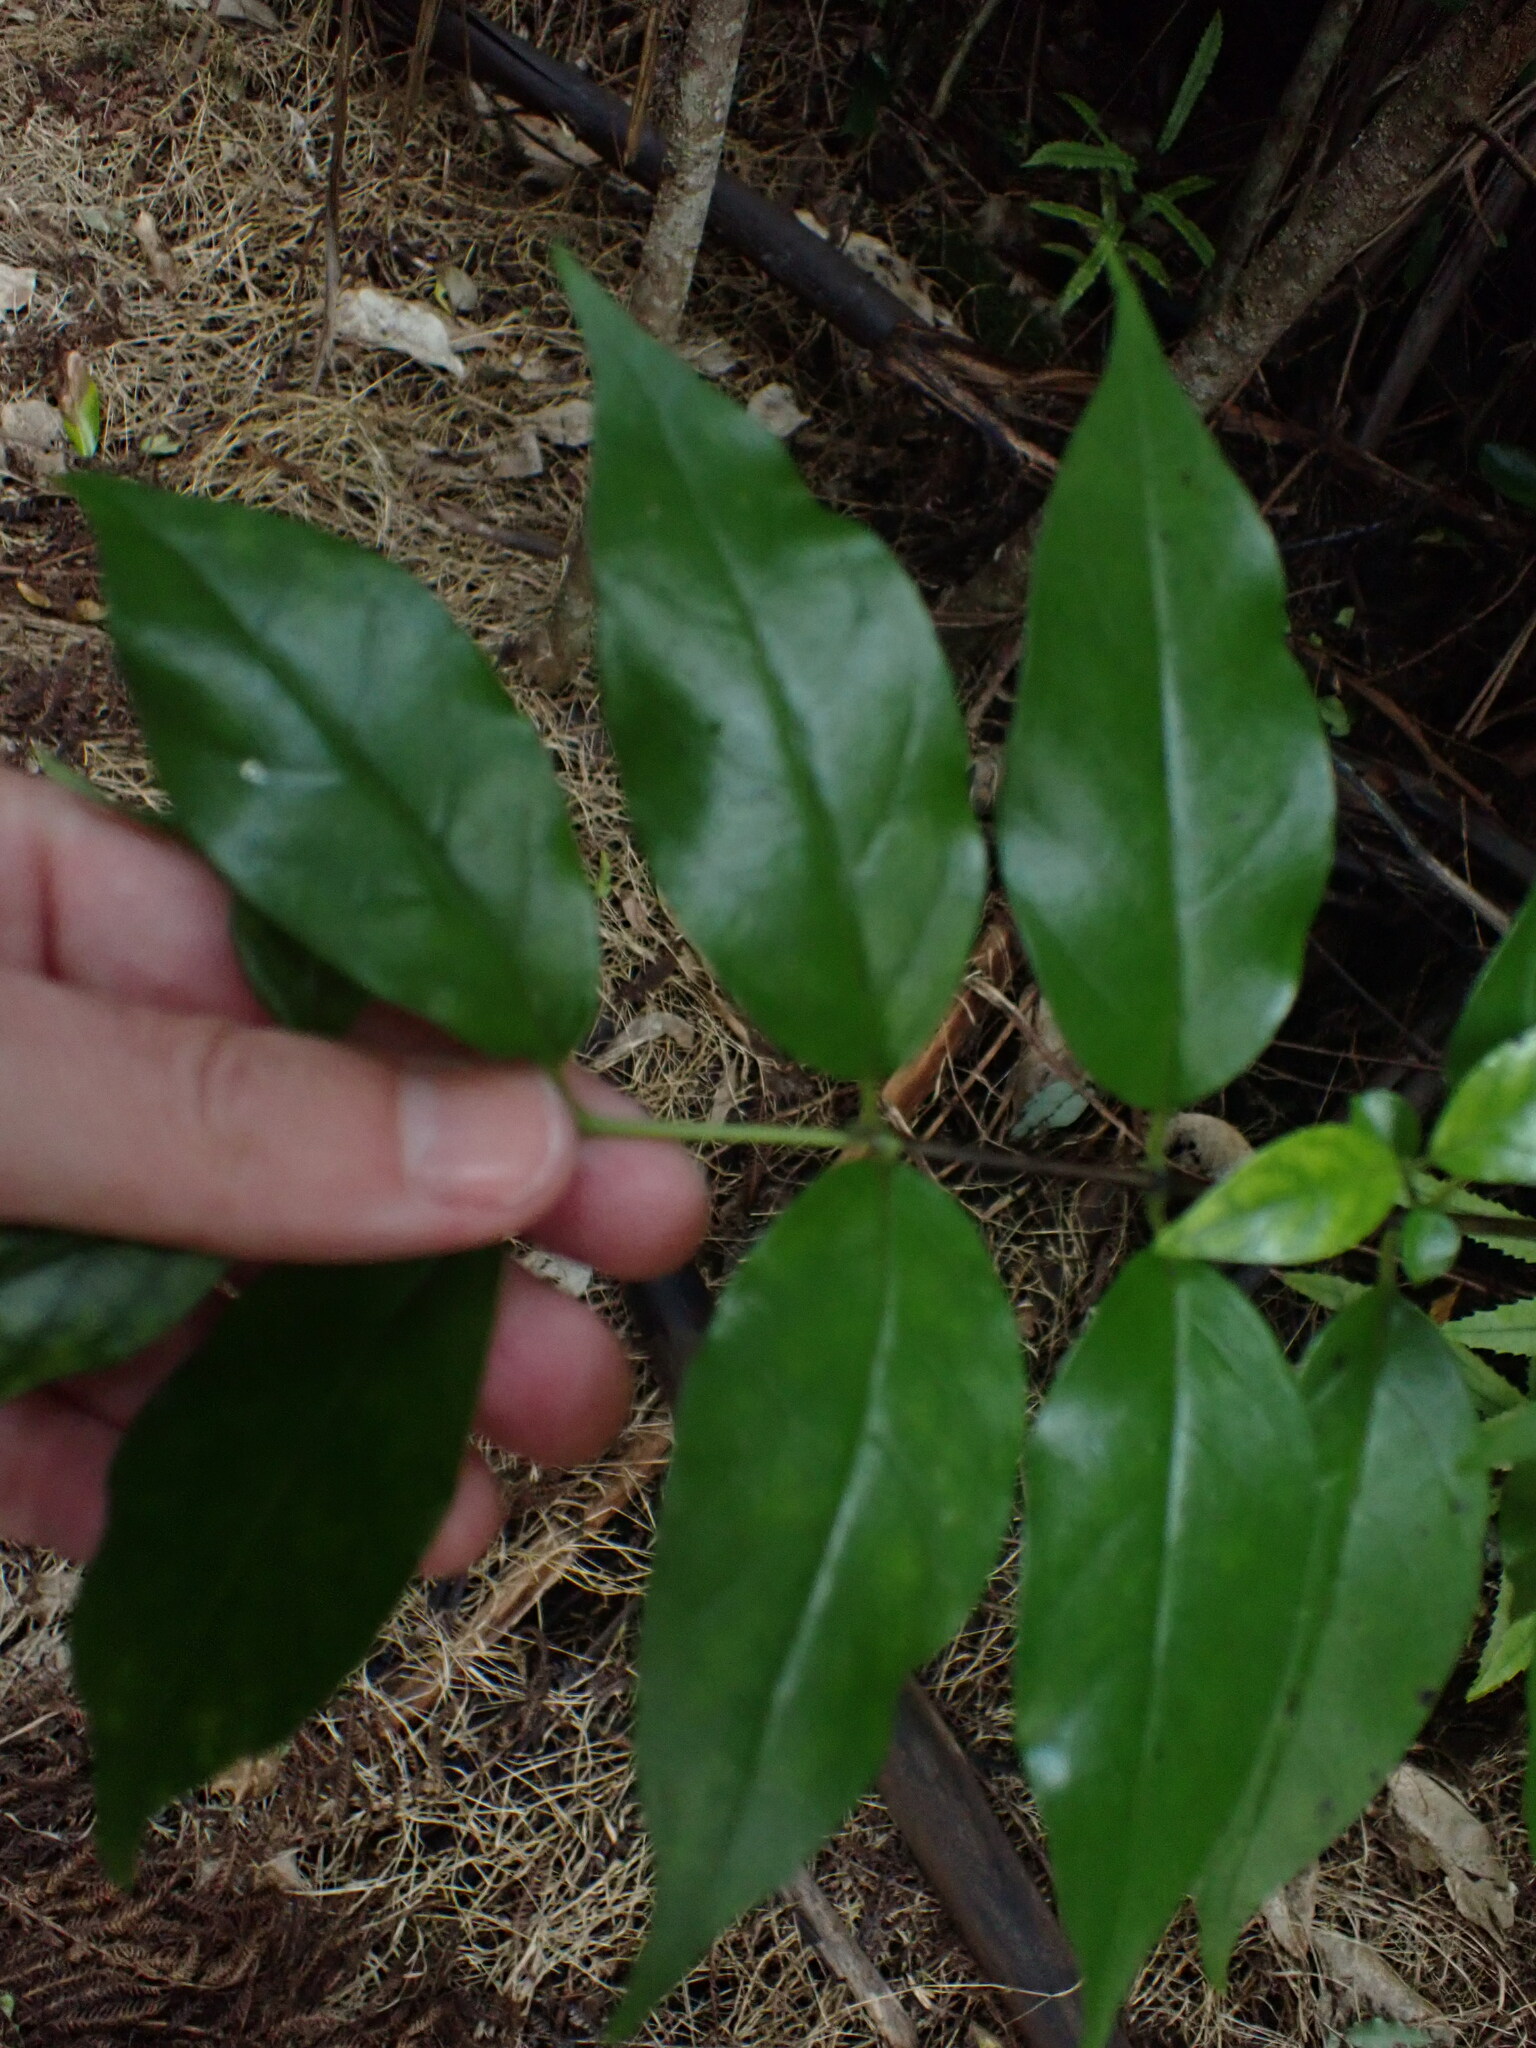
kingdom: Plantae
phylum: Tracheophyta
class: Magnoliopsida
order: Gentianales
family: Loganiaceae
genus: Geniostoma
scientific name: Geniostoma ligustrifolium
